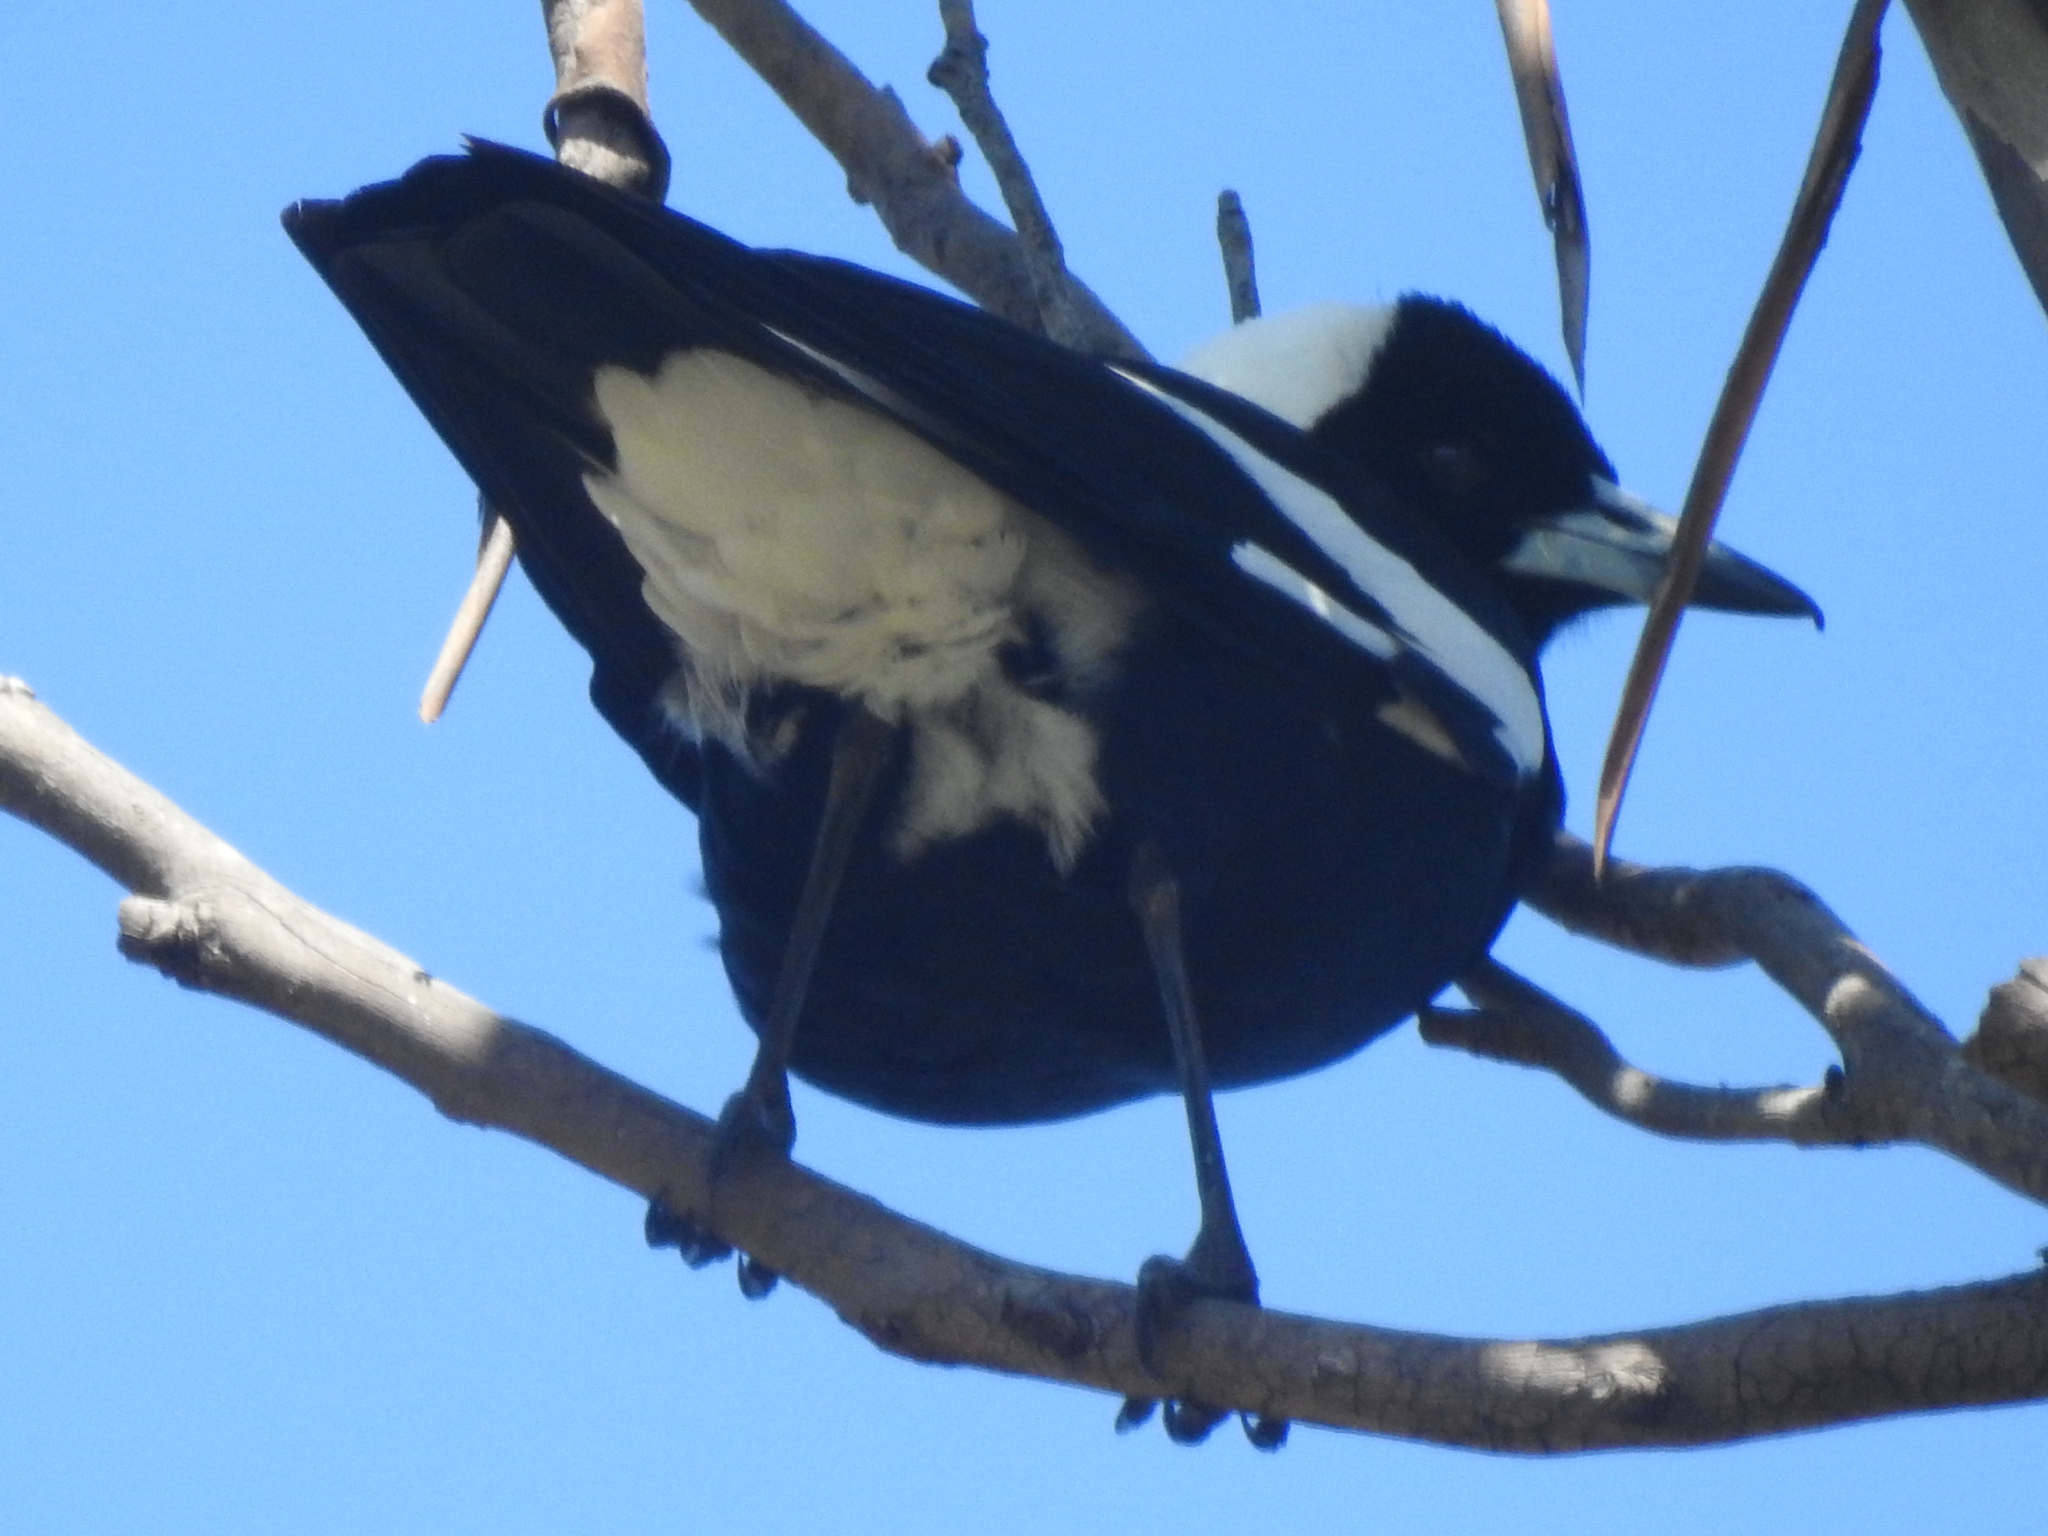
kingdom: Animalia
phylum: Chordata
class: Aves
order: Passeriformes
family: Cracticidae
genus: Gymnorhina
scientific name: Gymnorhina tibicen
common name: Australian magpie
